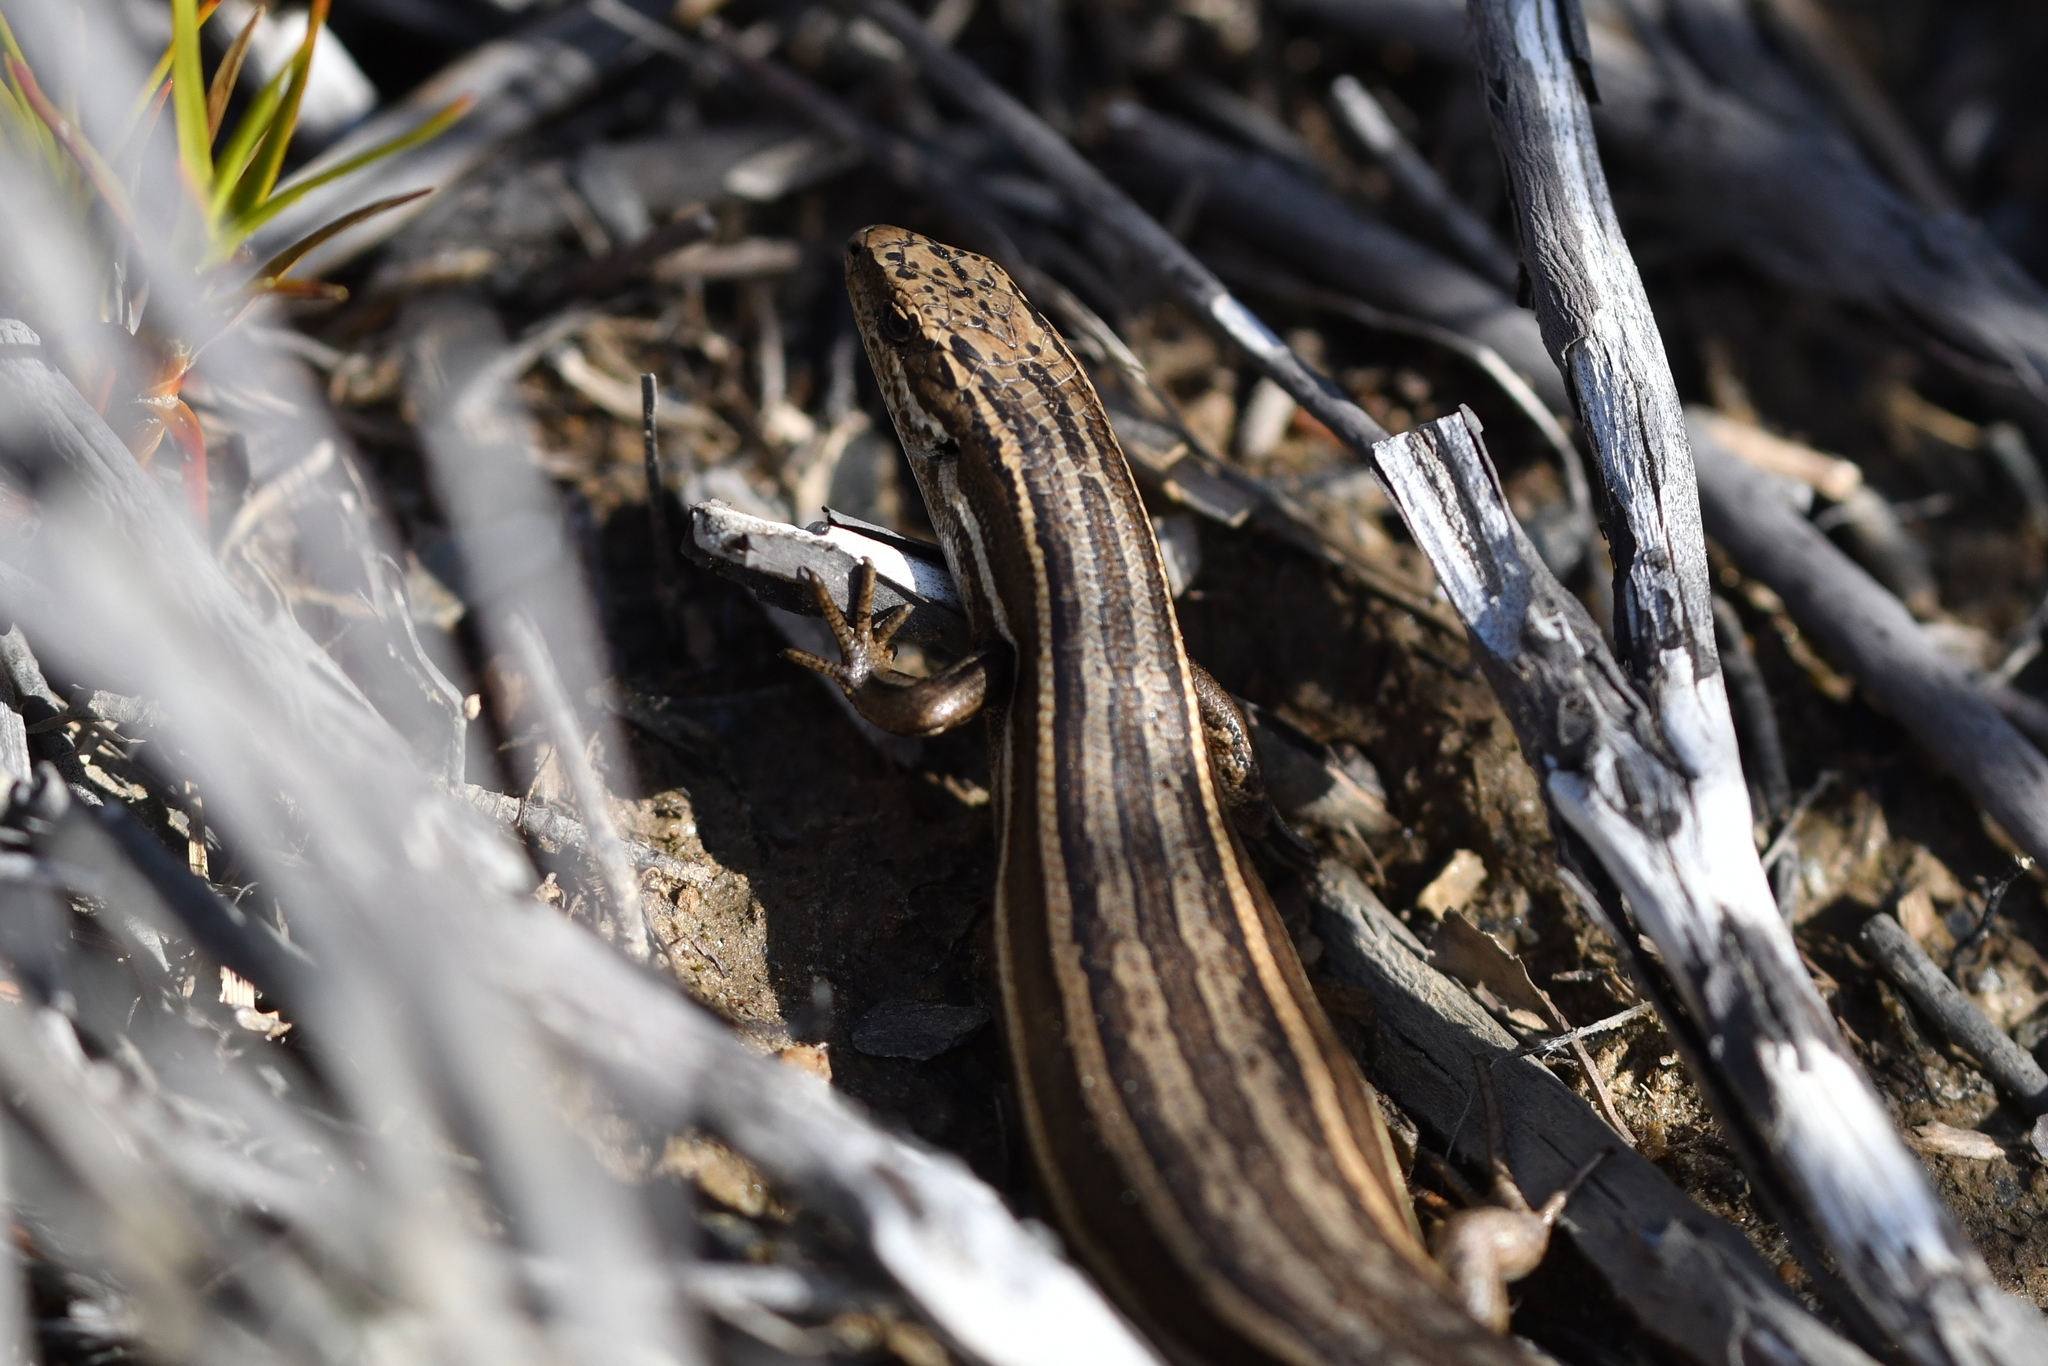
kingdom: Animalia
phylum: Chordata
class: Squamata
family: Scincidae
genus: Oligosoma
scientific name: Oligosoma maccanni
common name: Mccann’s skink
